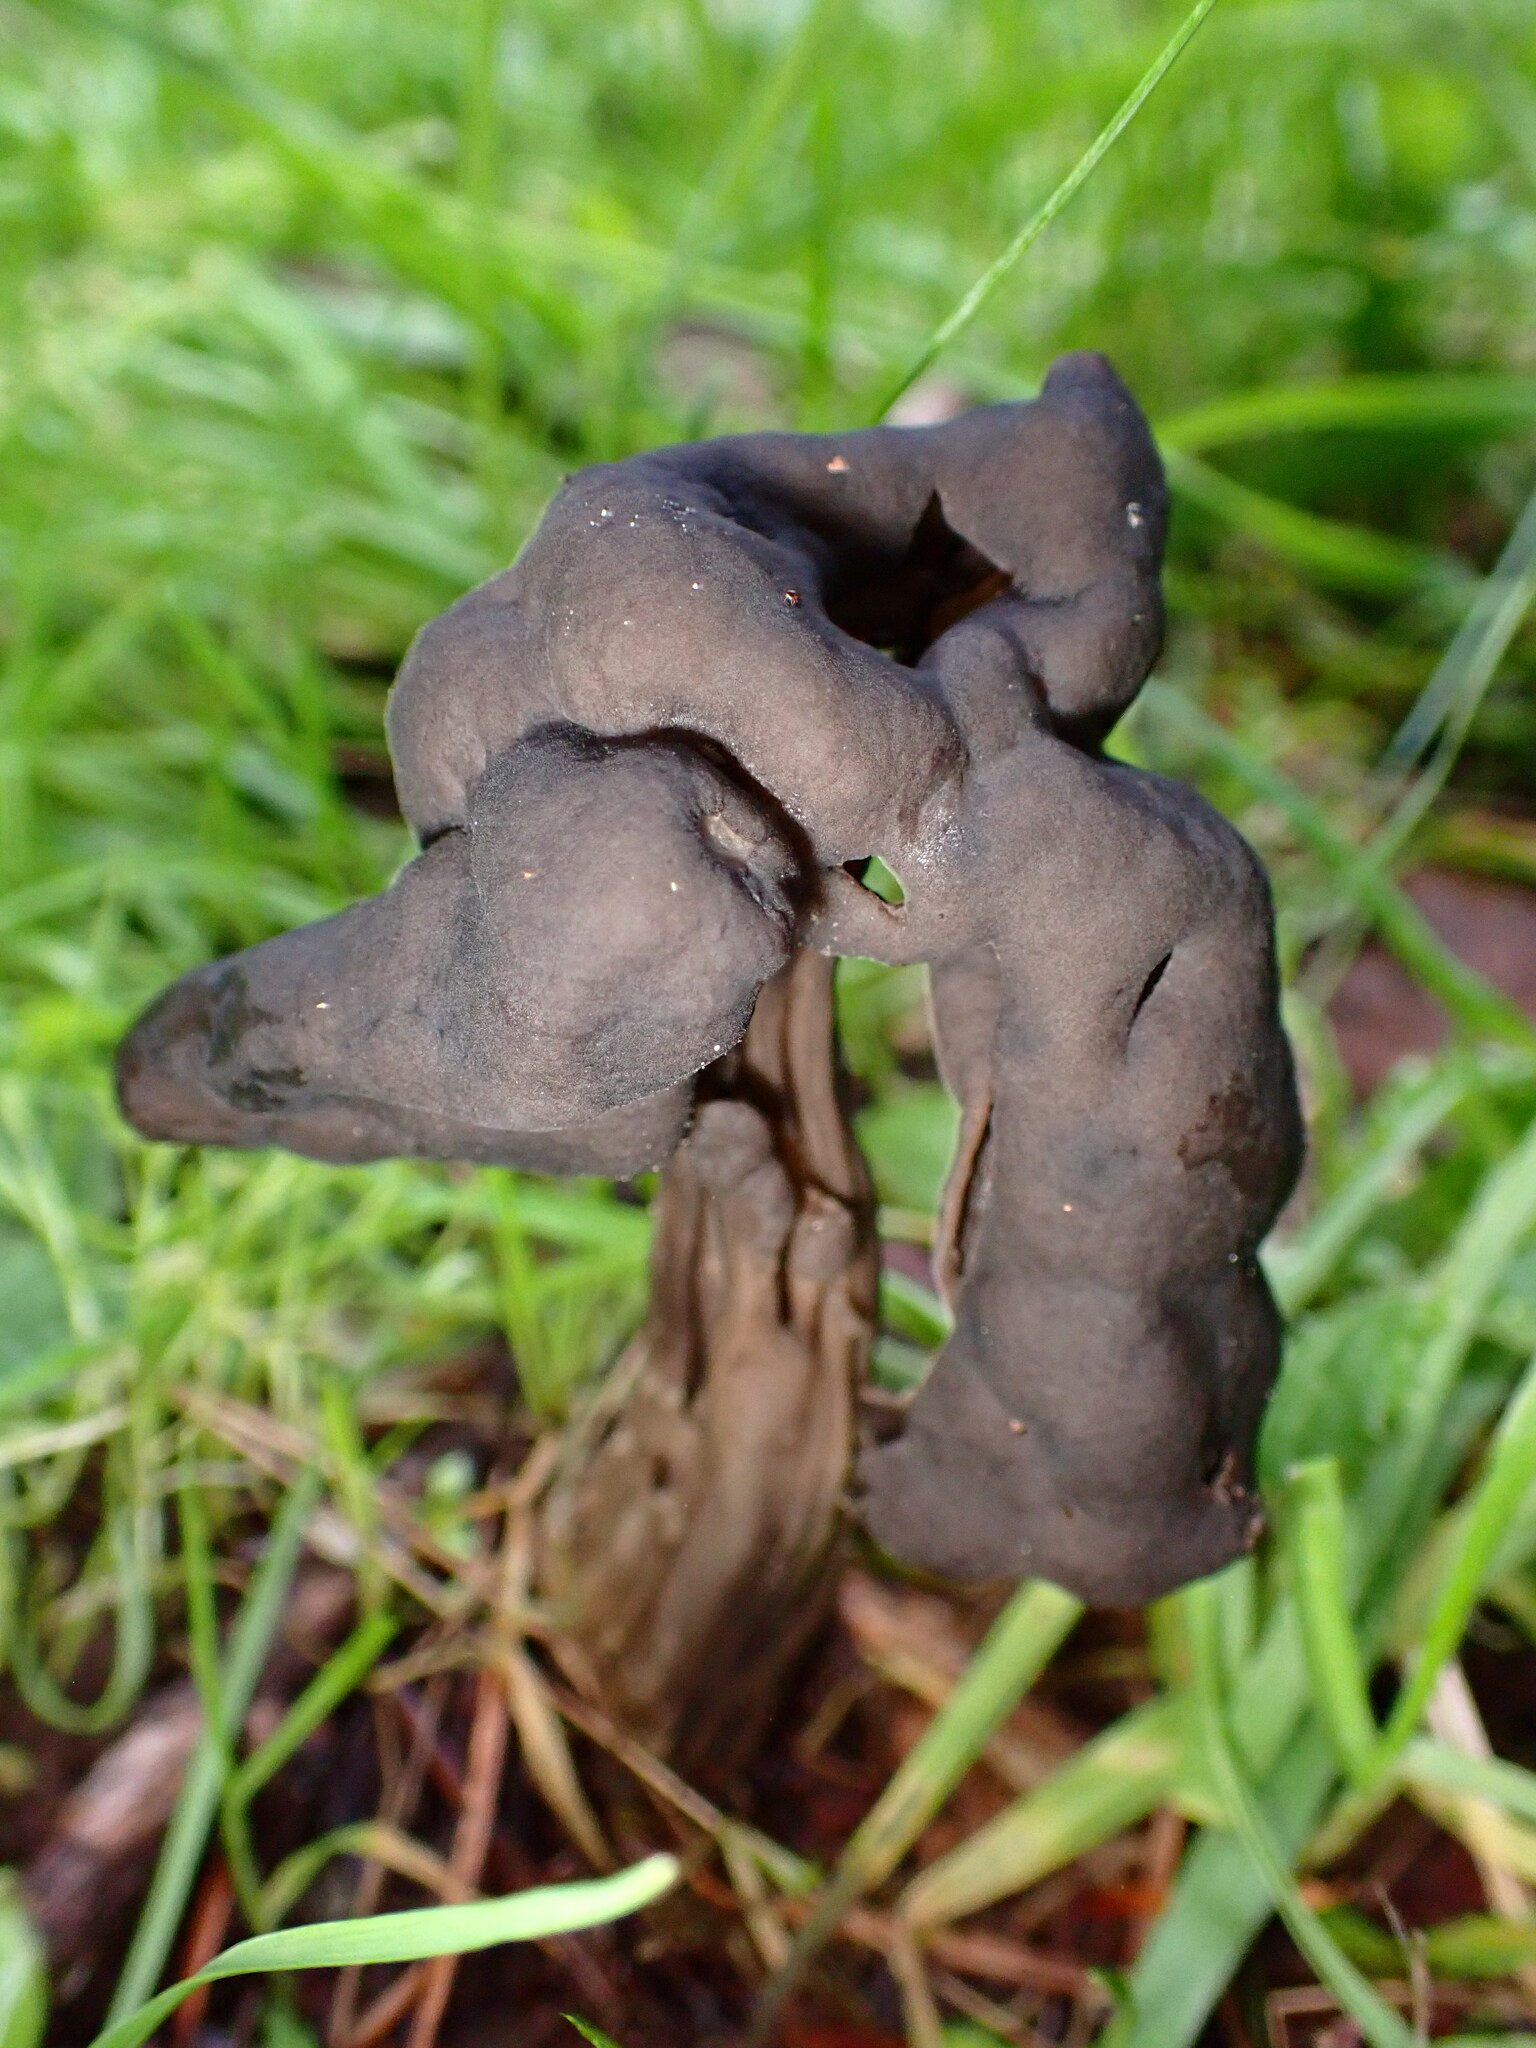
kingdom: Fungi
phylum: Ascomycota
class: Pezizomycetes
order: Pezizales
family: Helvellaceae
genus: Helvella
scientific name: Helvella vespertina
